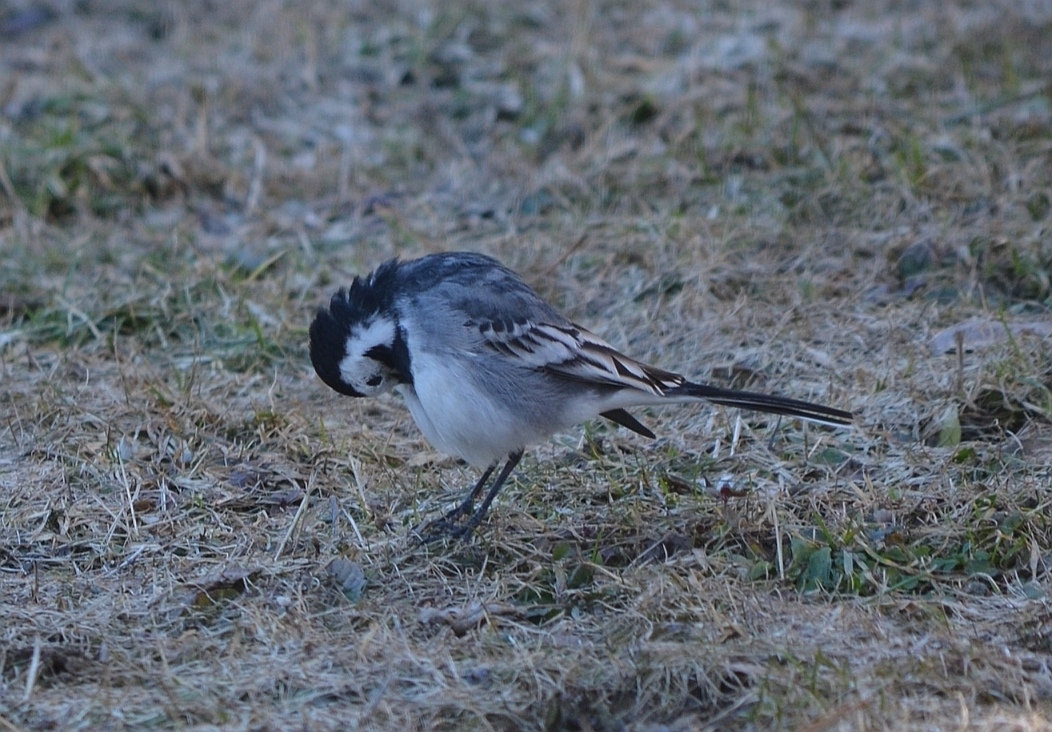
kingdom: Animalia
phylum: Chordata
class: Aves
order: Passeriformes
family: Motacillidae
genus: Motacilla
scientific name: Motacilla alba
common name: White wagtail
